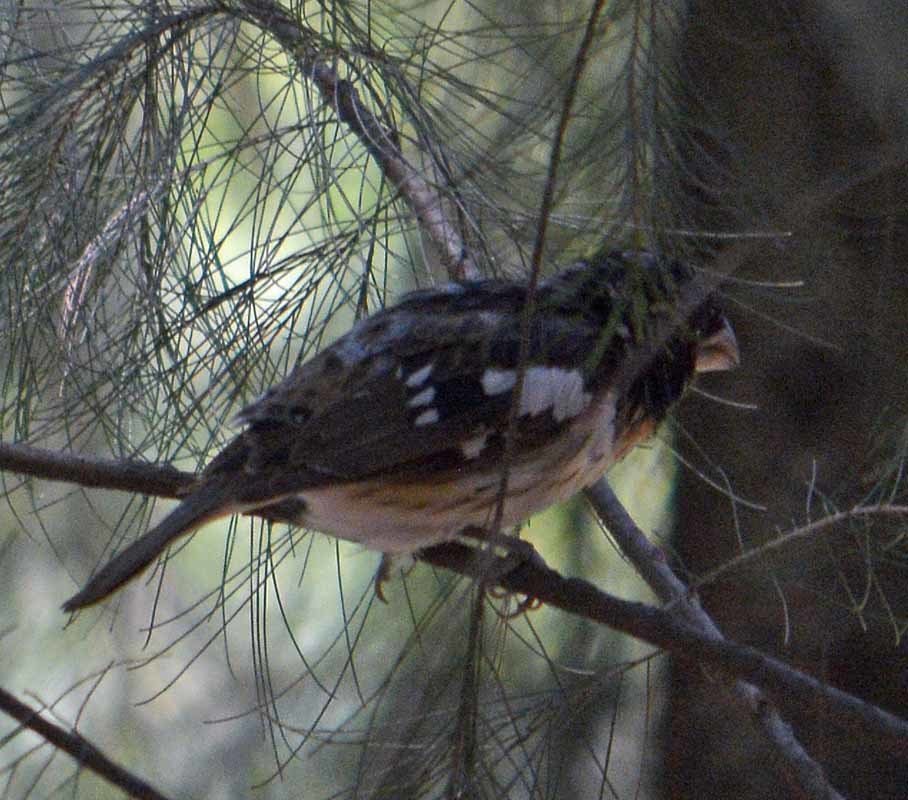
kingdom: Animalia
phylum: Chordata
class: Aves
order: Passeriformes
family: Cardinalidae
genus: Pheucticus
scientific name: Pheucticus ludovicianus
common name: Rose-breasted grosbeak
